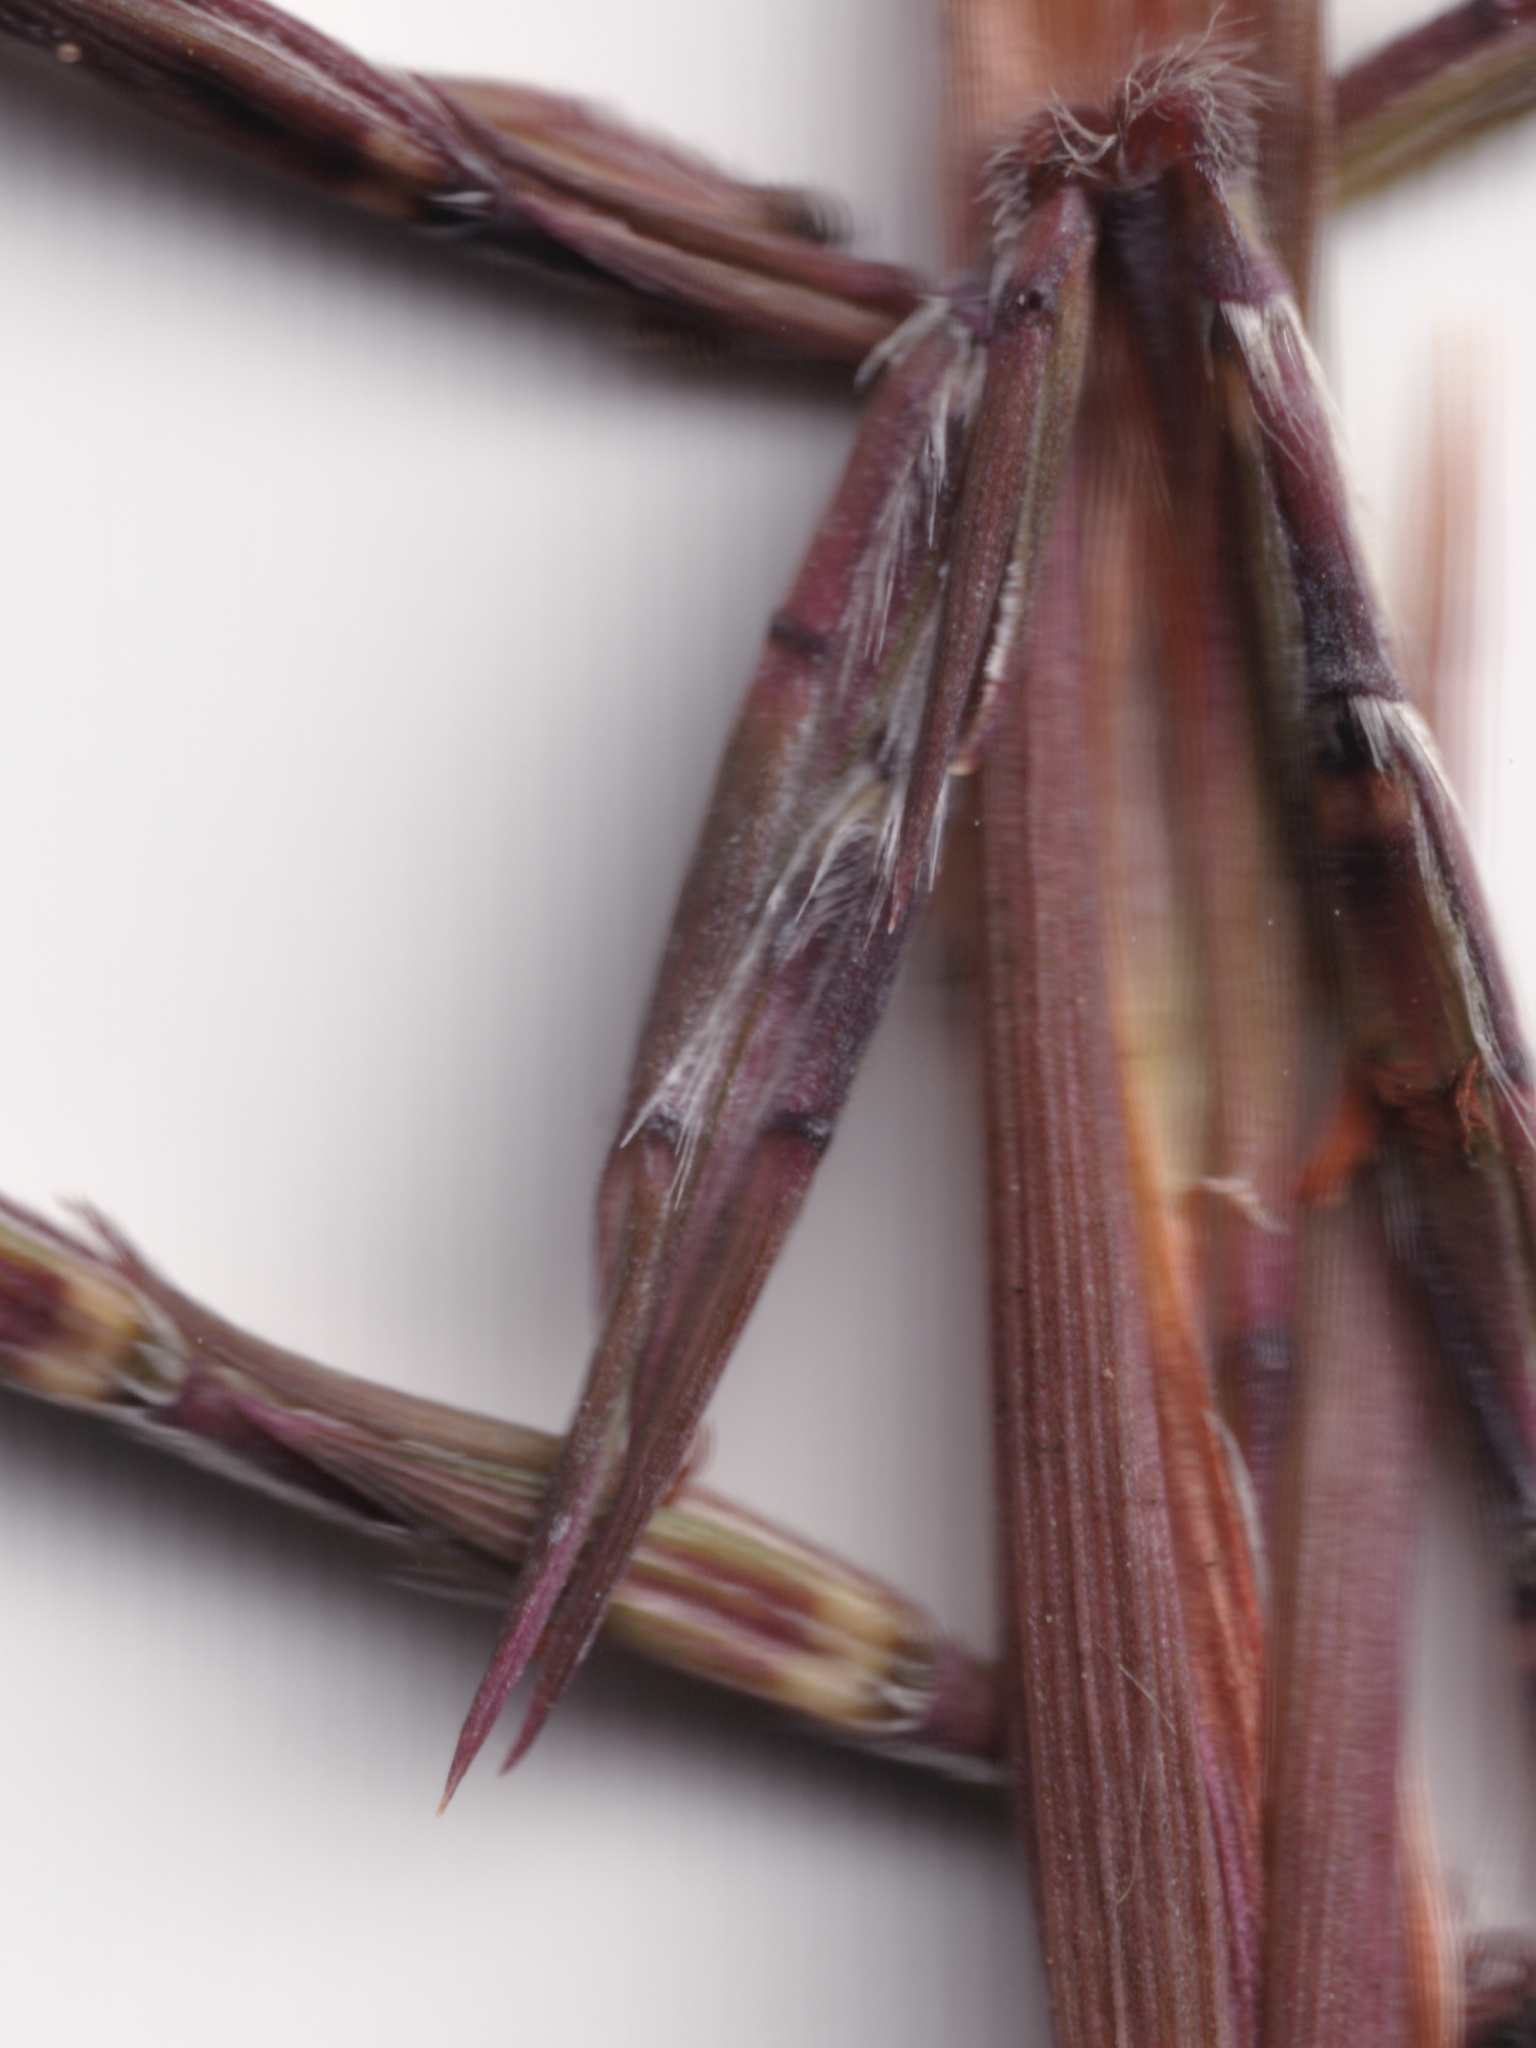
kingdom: Plantae
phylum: Tracheophyta
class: Liliopsida
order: Poales
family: Poaceae
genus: Cymbopogon
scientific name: Cymbopogon refractus
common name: Barbwire grass
